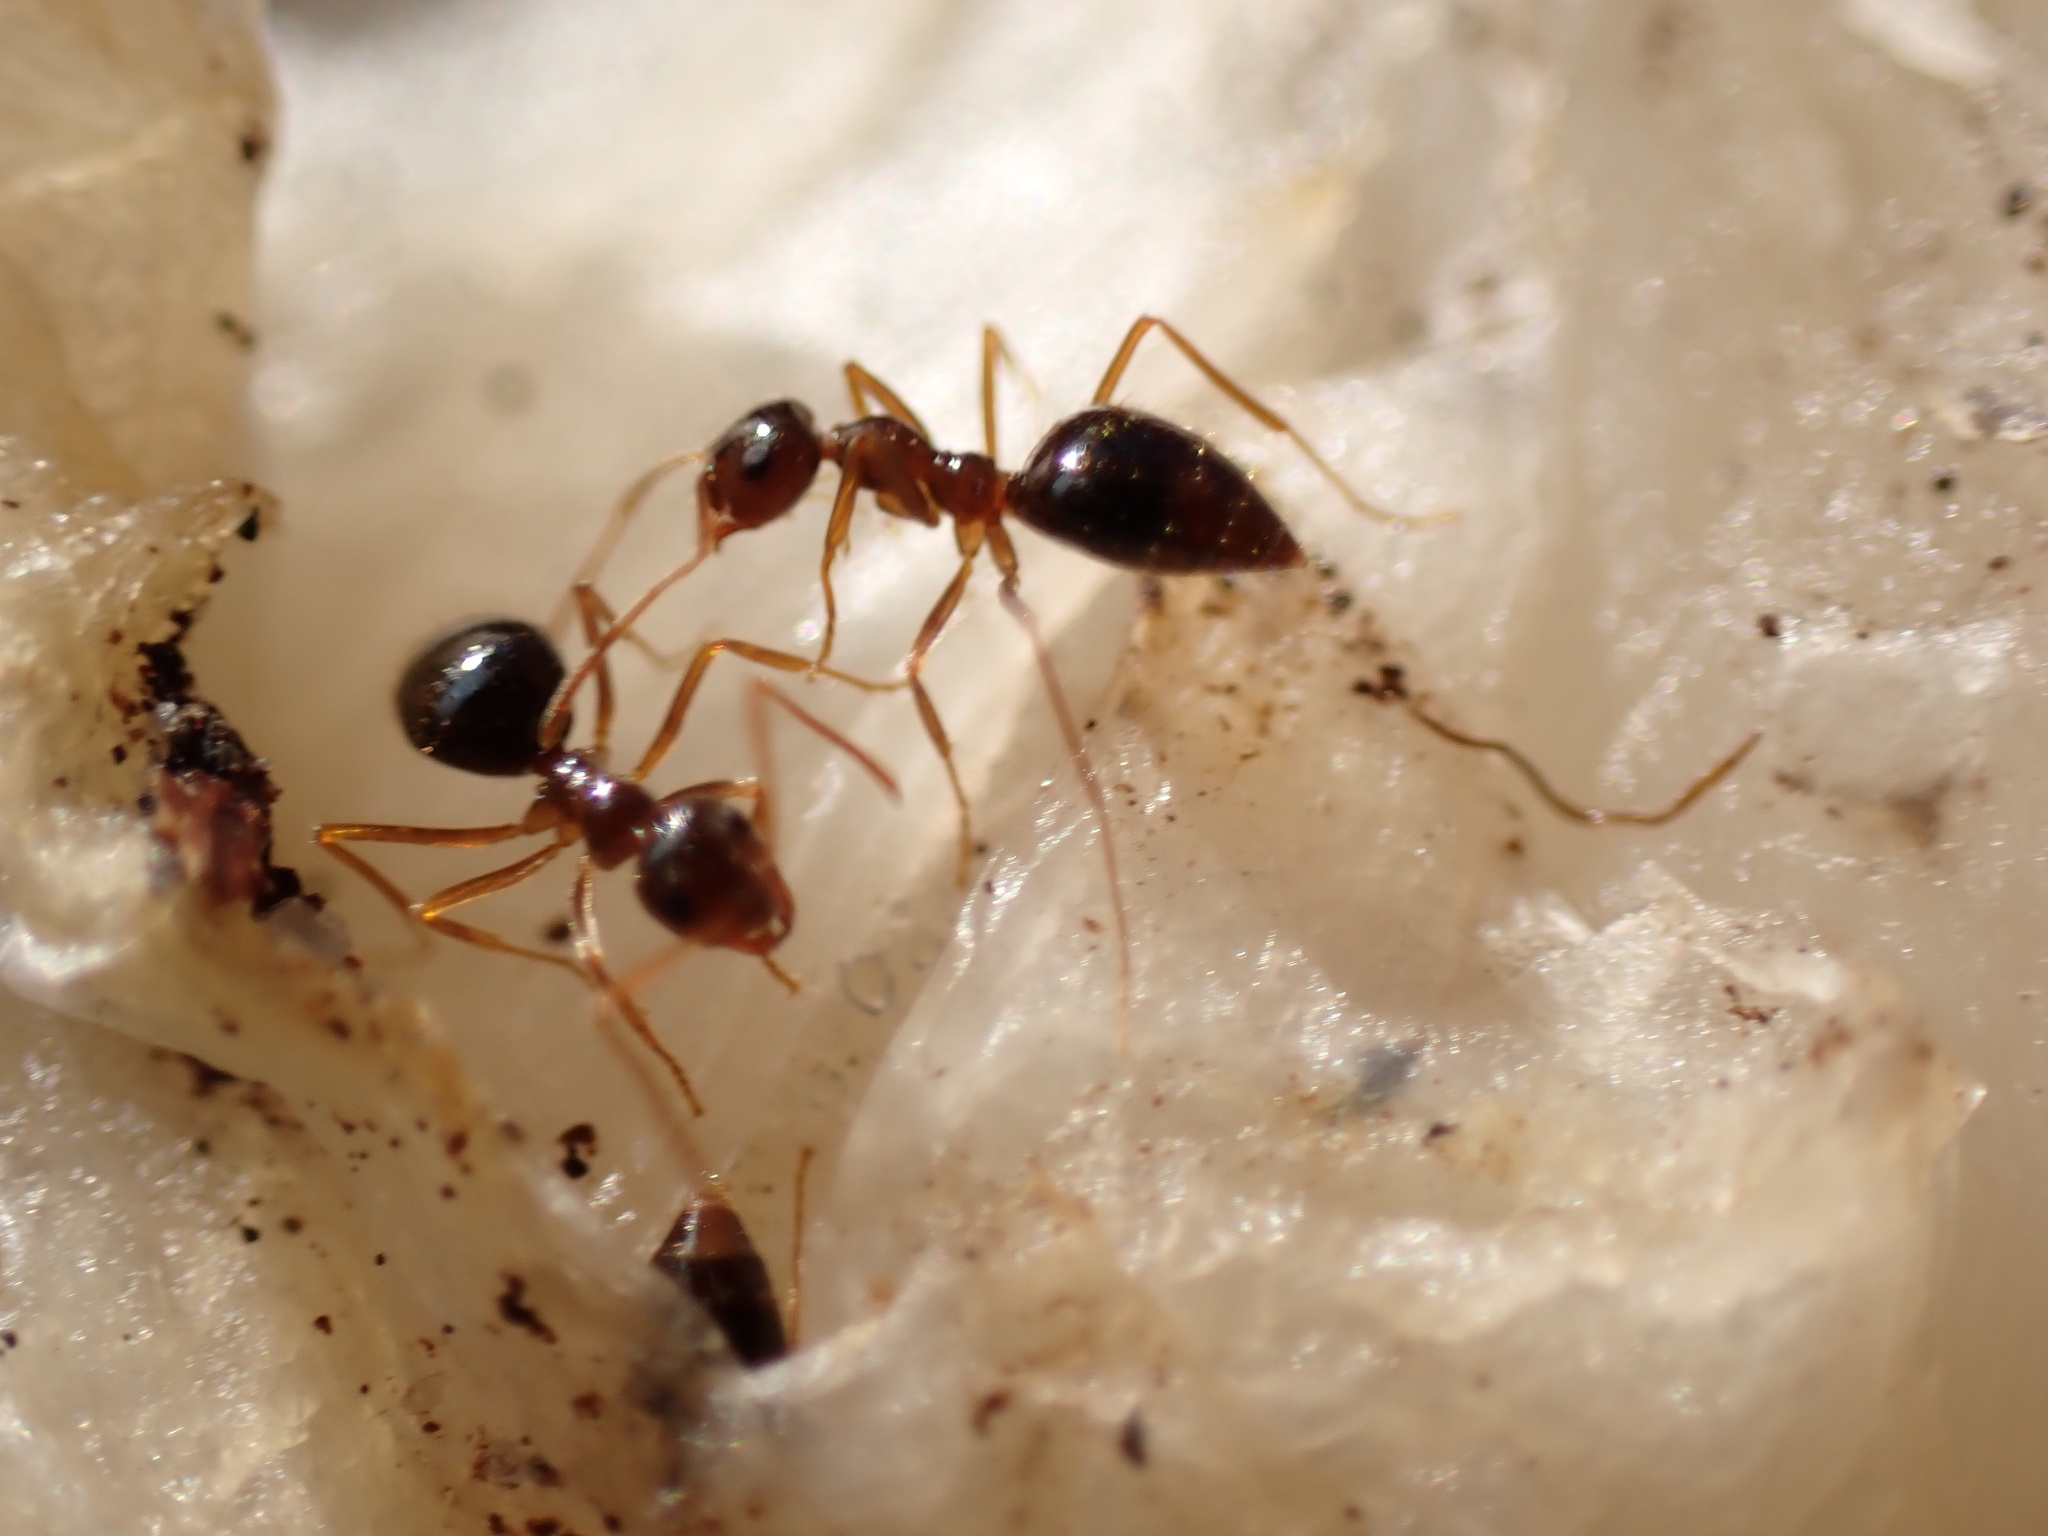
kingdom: Animalia
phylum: Arthropoda
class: Insecta
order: Hymenoptera
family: Formicidae
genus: Prenolepis
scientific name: Prenolepis imparis
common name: Small honey ant
